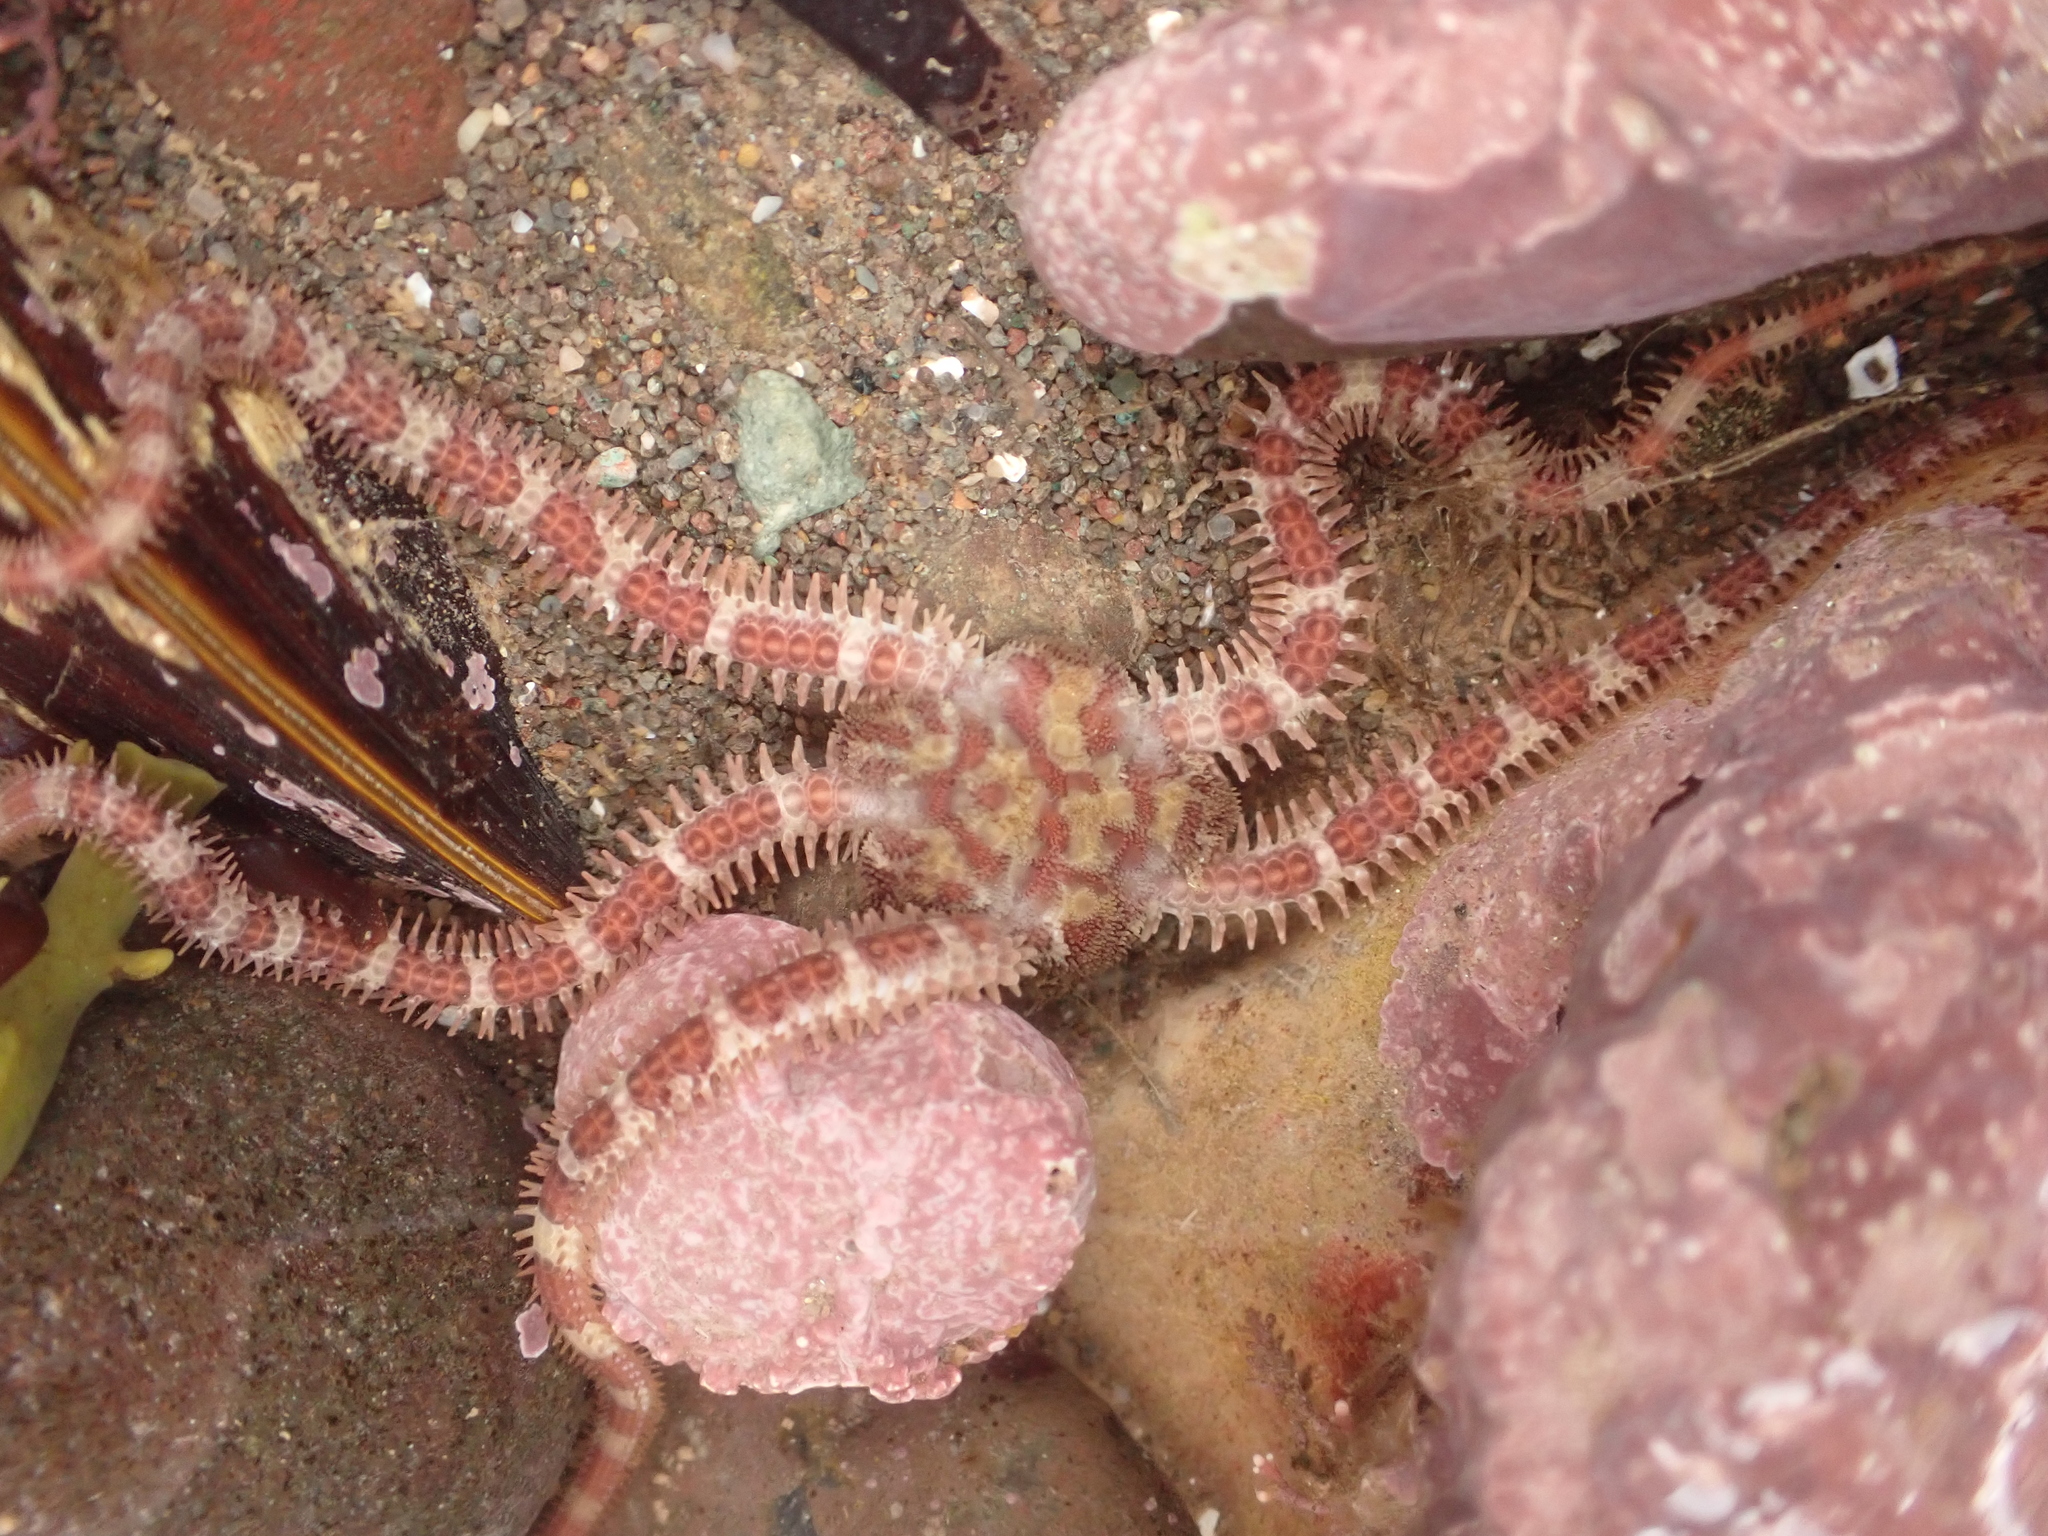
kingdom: Animalia
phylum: Echinodermata
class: Ophiuroidea
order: Amphilepidida
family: Ophiopholidae
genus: Ophiopholis
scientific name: Ophiopholis aculeata
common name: Crevice brittlestar
